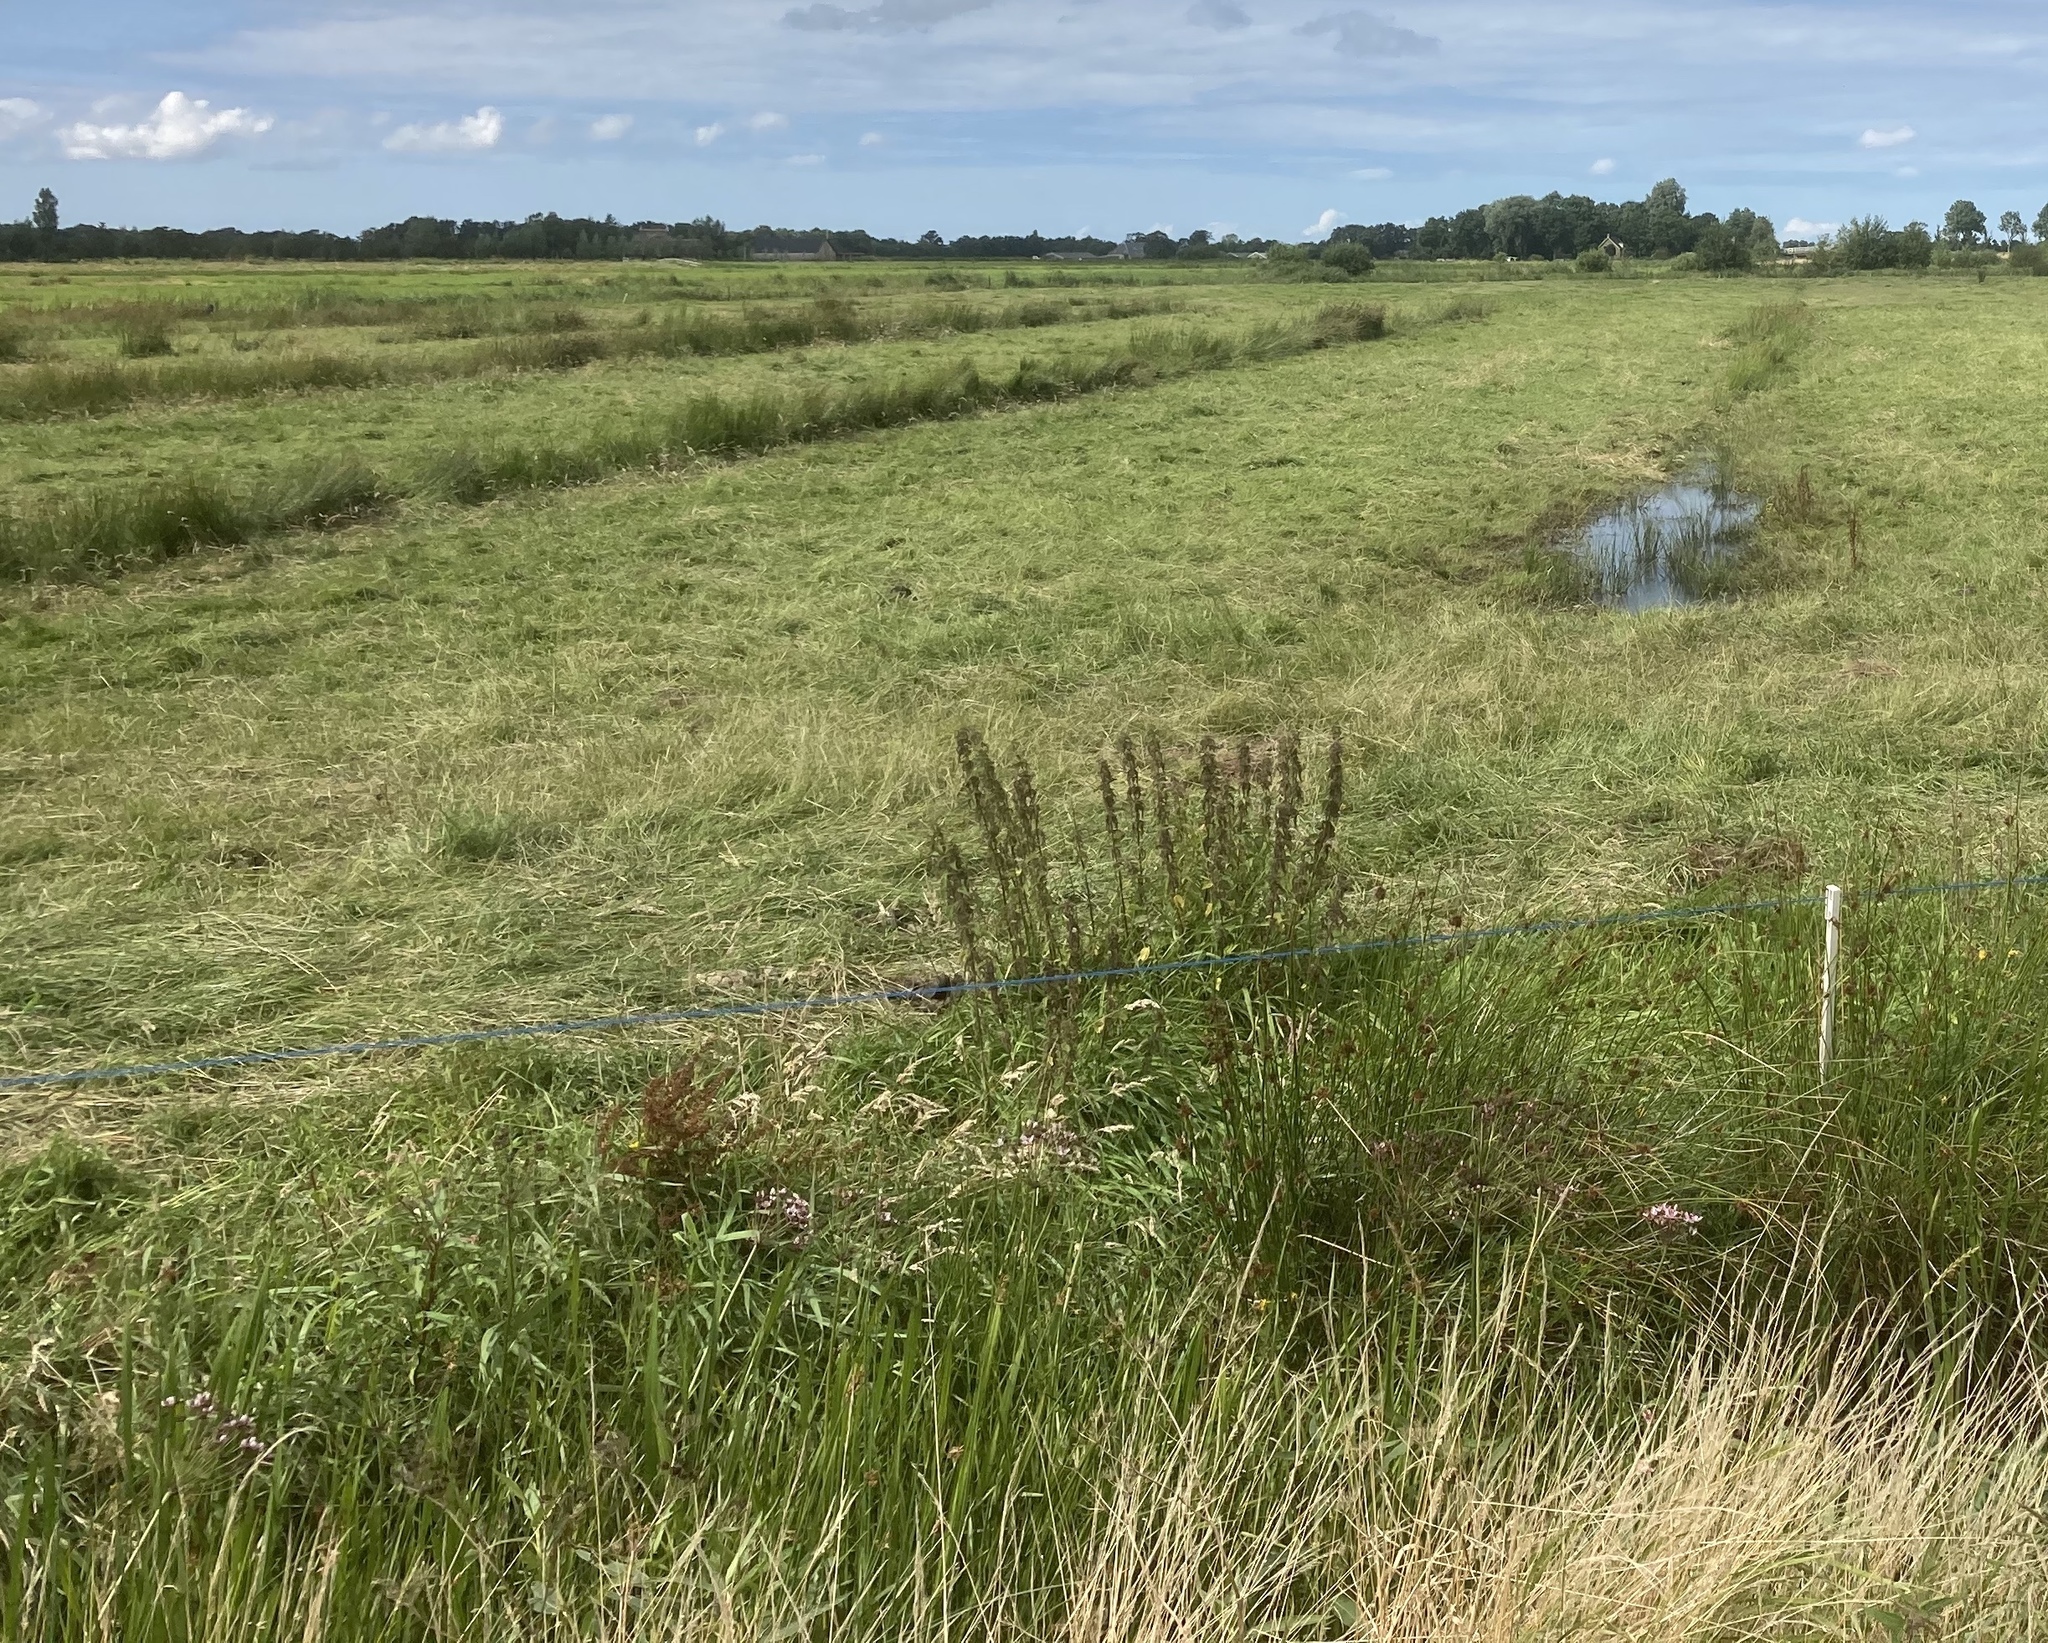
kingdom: Plantae
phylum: Tracheophyta
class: Liliopsida
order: Alismatales
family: Butomaceae
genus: Butomus
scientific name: Butomus umbellatus
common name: Flowering-rush
